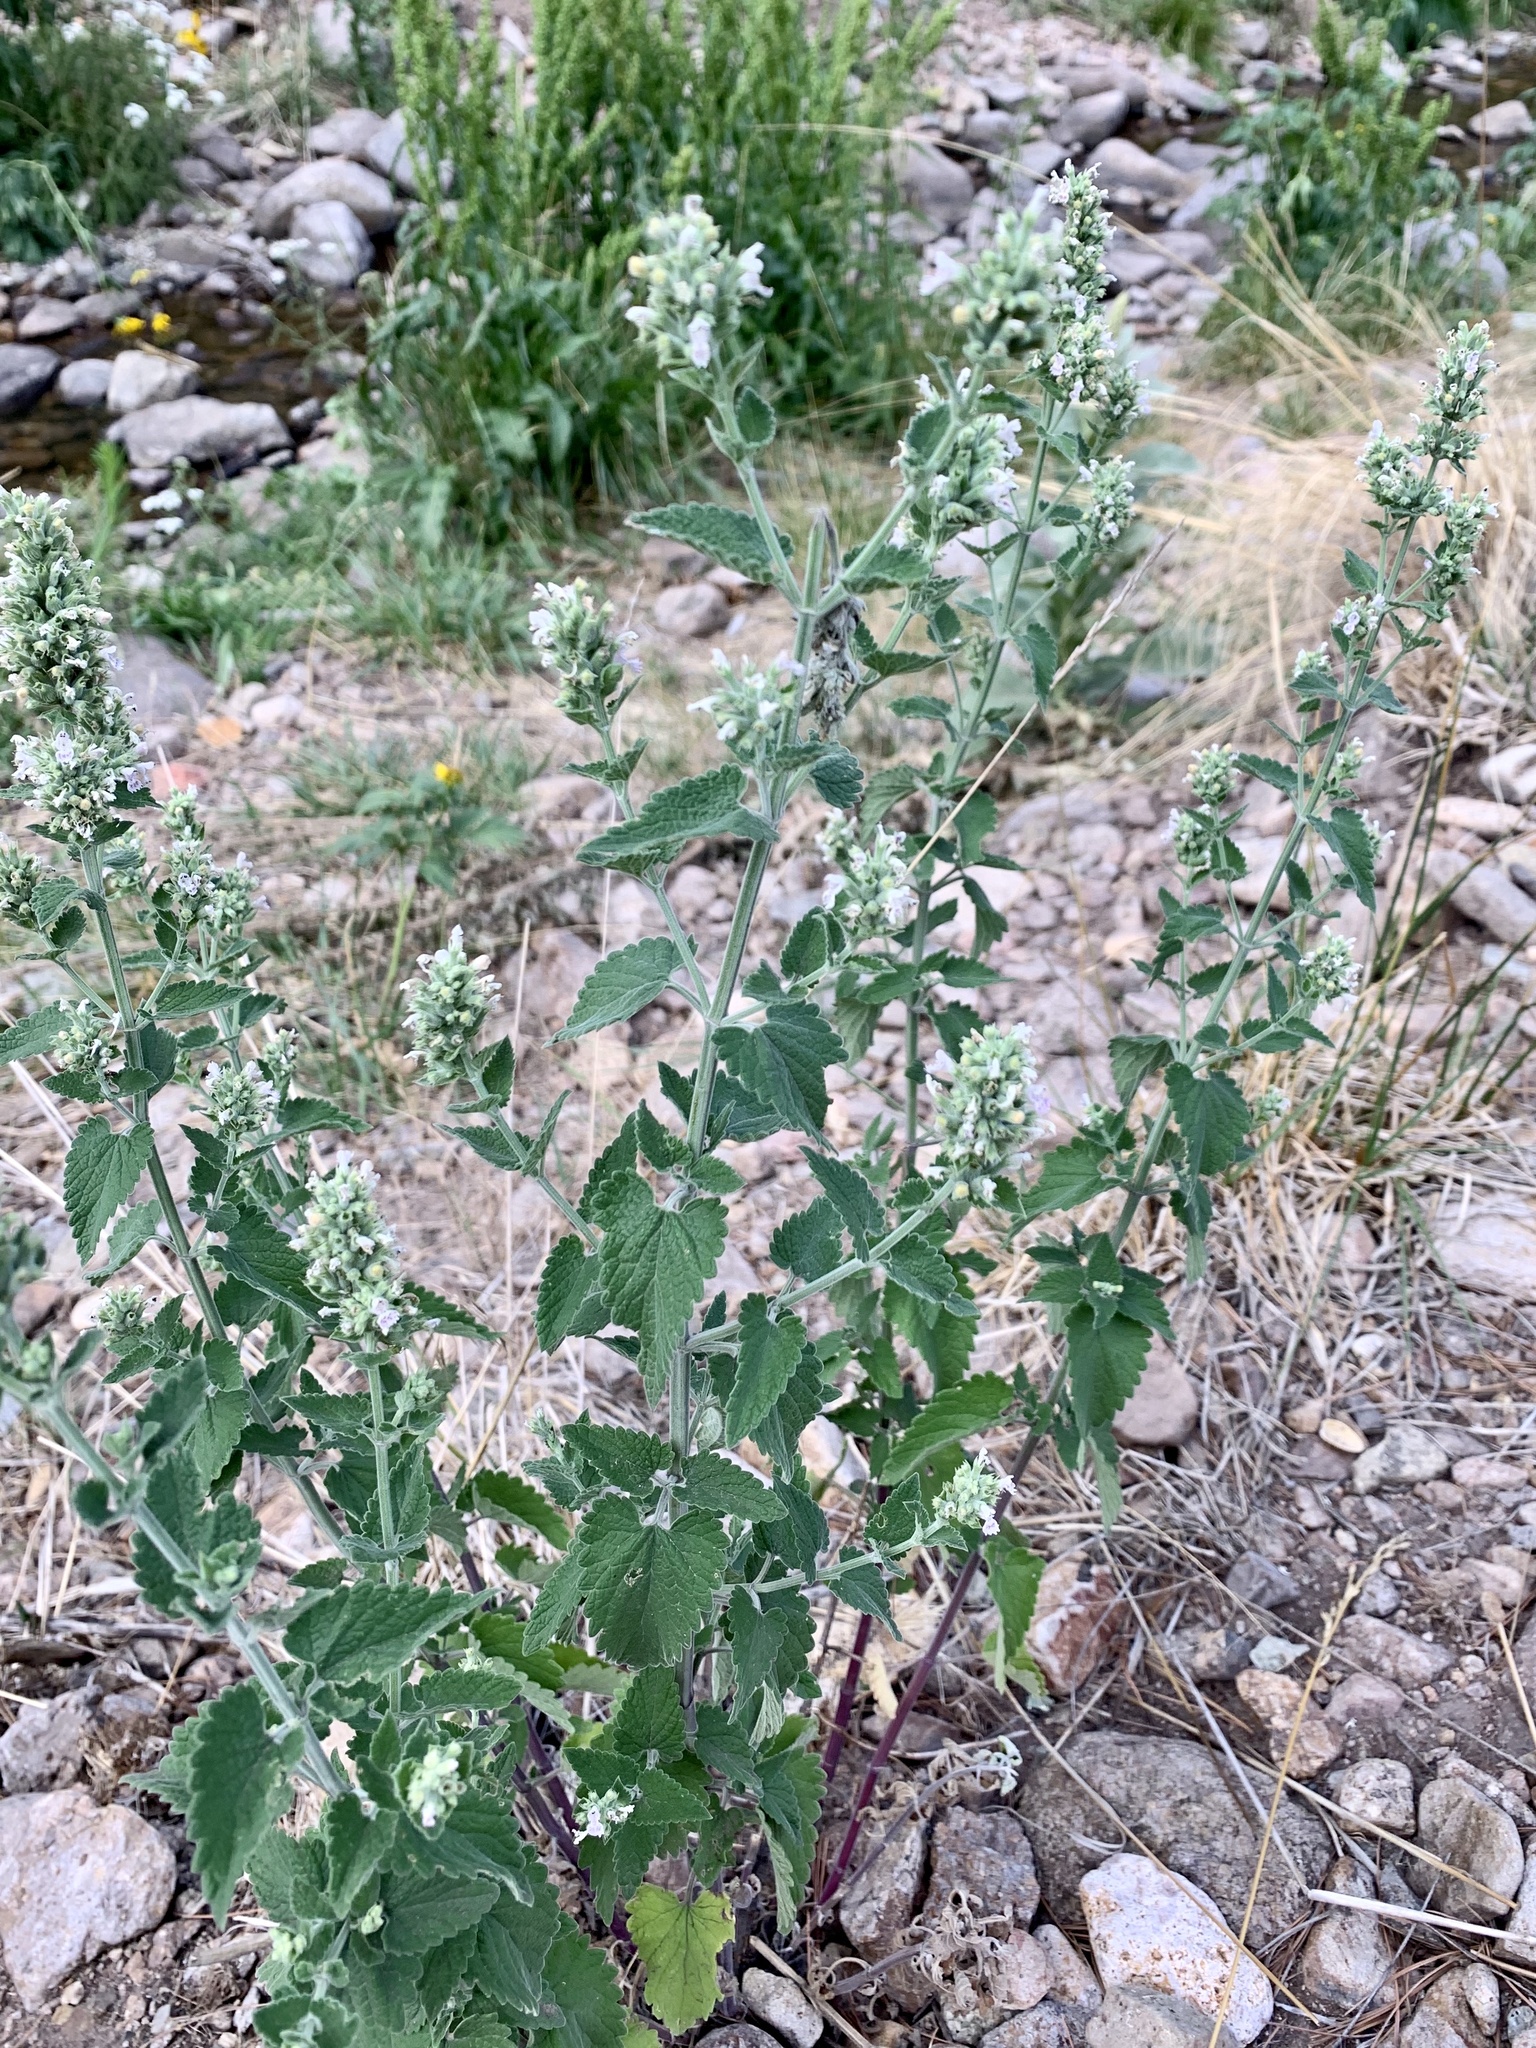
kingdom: Plantae
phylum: Tracheophyta
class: Magnoliopsida
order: Lamiales
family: Lamiaceae
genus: Nepeta
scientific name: Nepeta cataria
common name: Catnip
